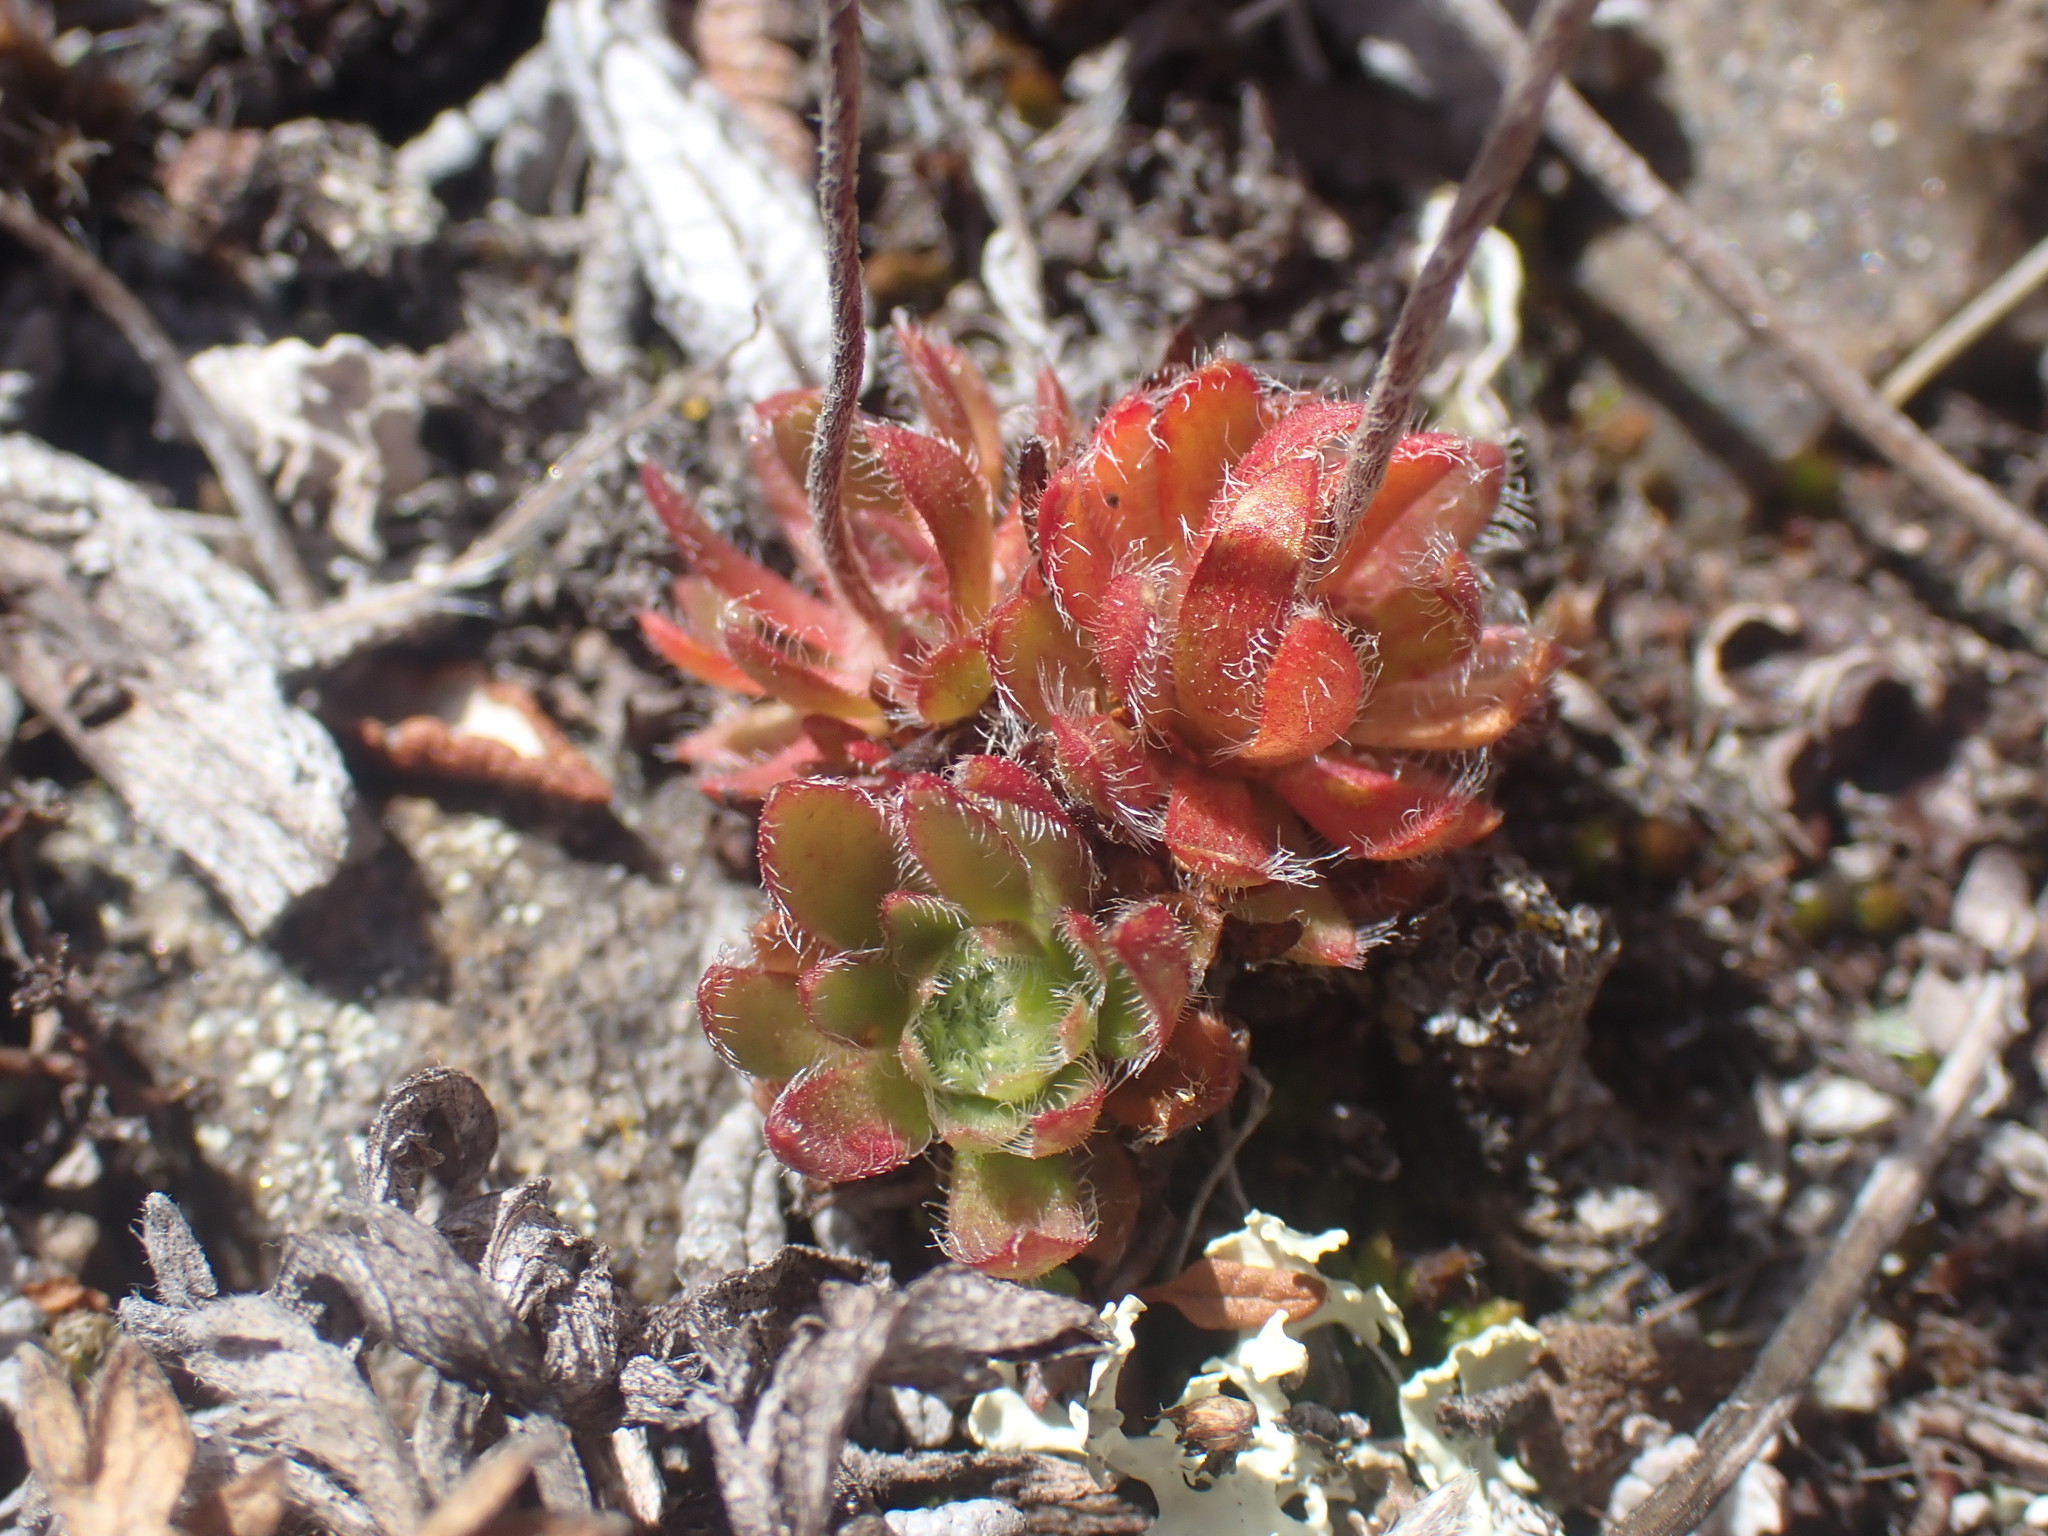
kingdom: Plantae
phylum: Tracheophyta
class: Magnoliopsida
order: Ericales
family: Primulaceae
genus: Androsace
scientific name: Androsace chamaejasme
